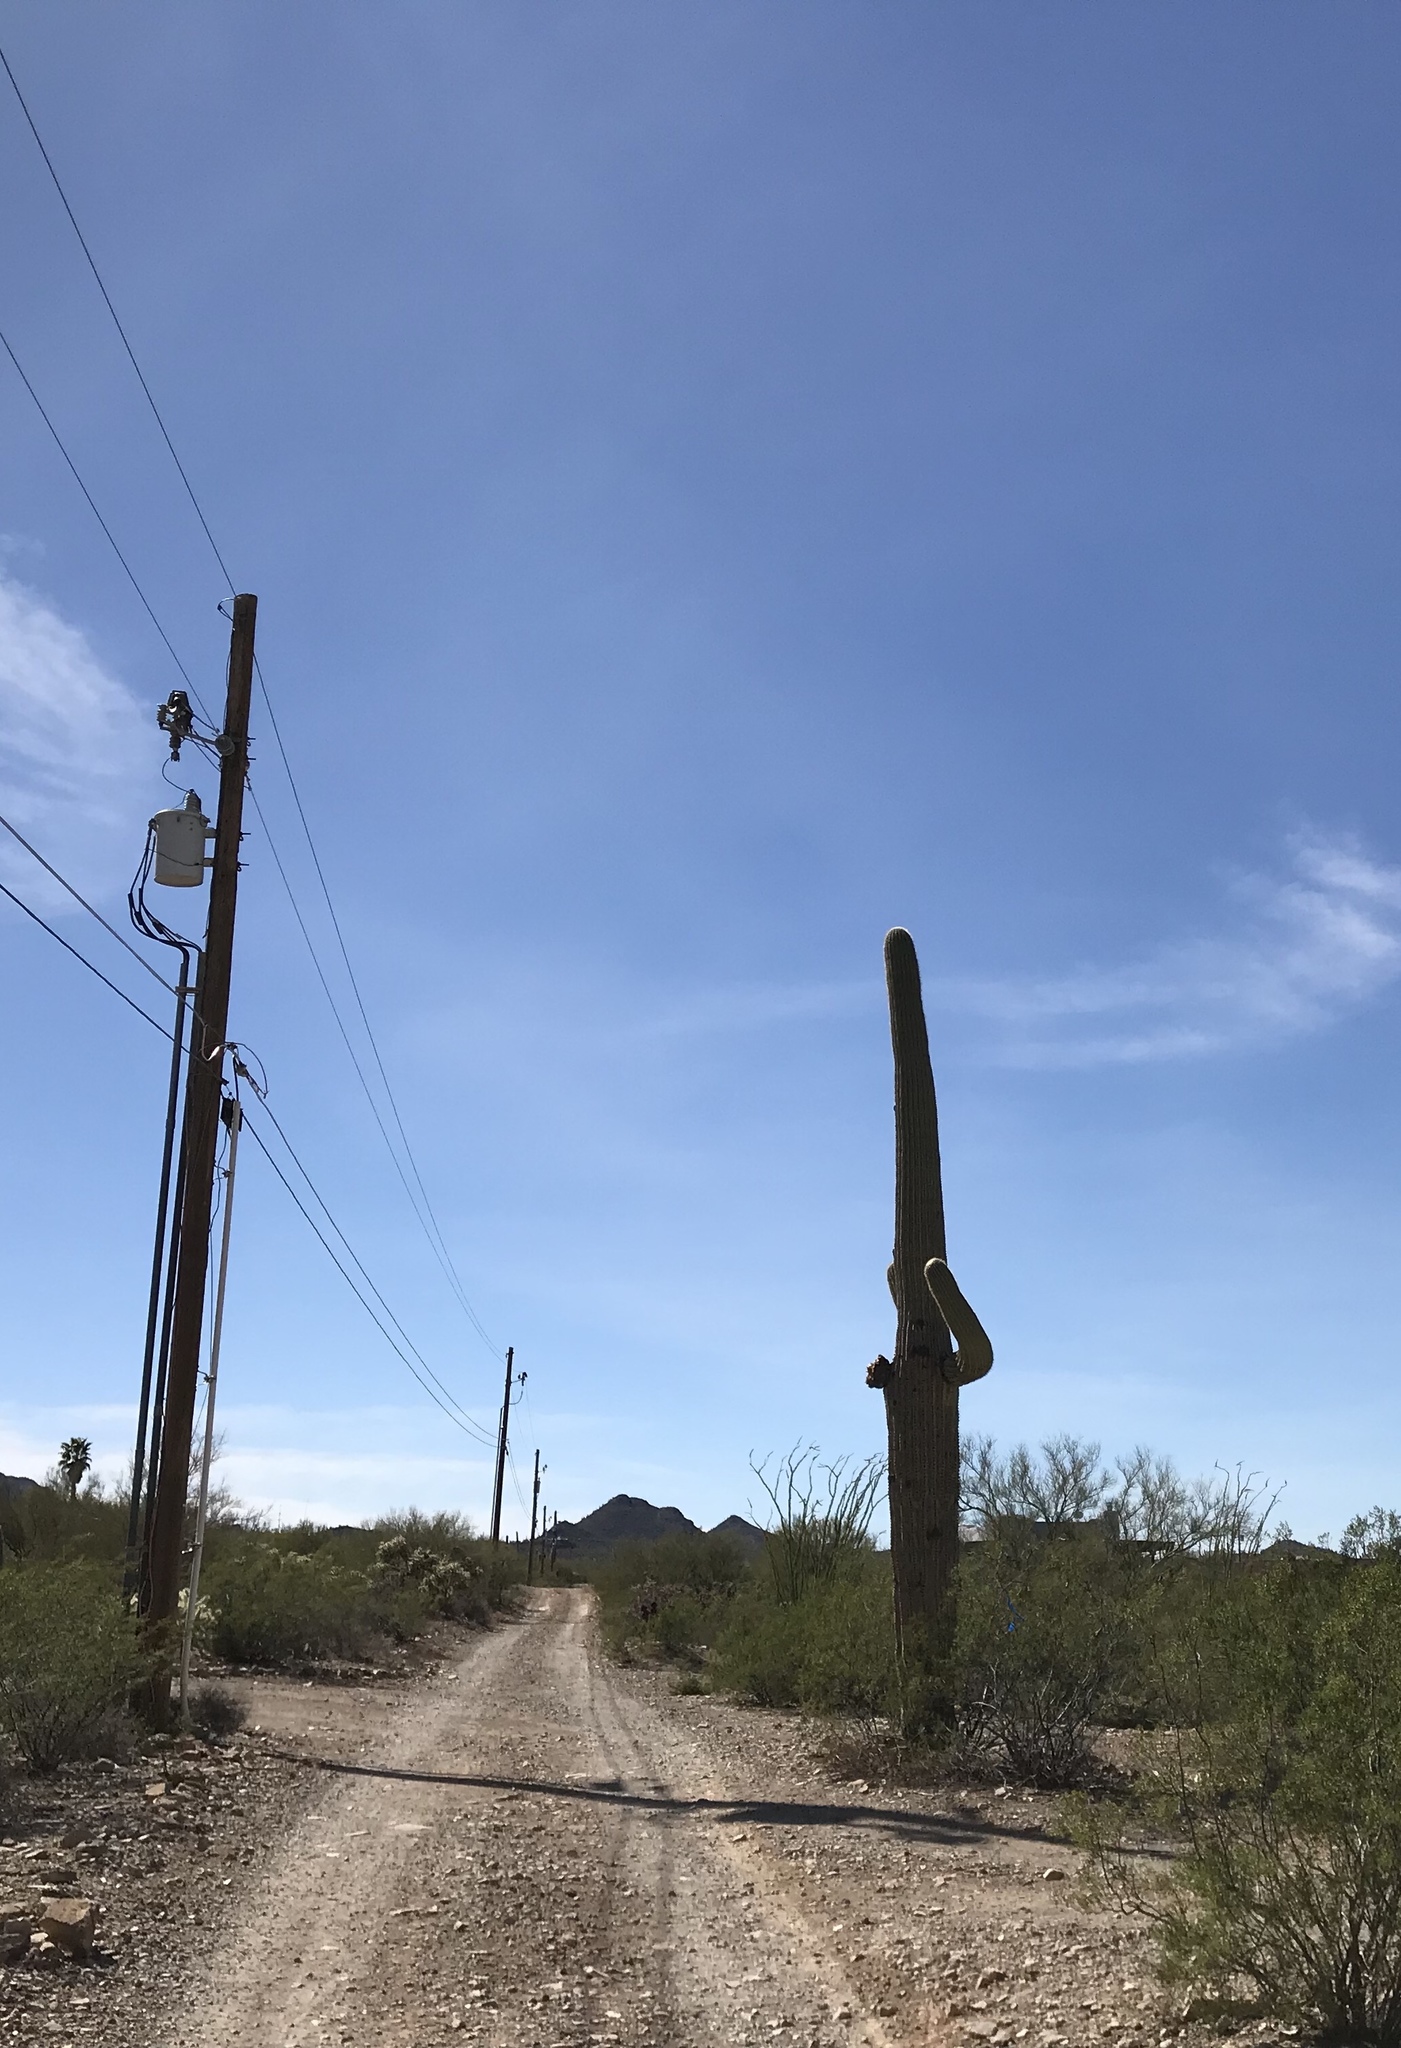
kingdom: Plantae
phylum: Tracheophyta
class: Magnoliopsida
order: Caryophyllales
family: Cactaceae
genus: Carnegiea
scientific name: Carnegiea gigantea
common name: Saguaro
